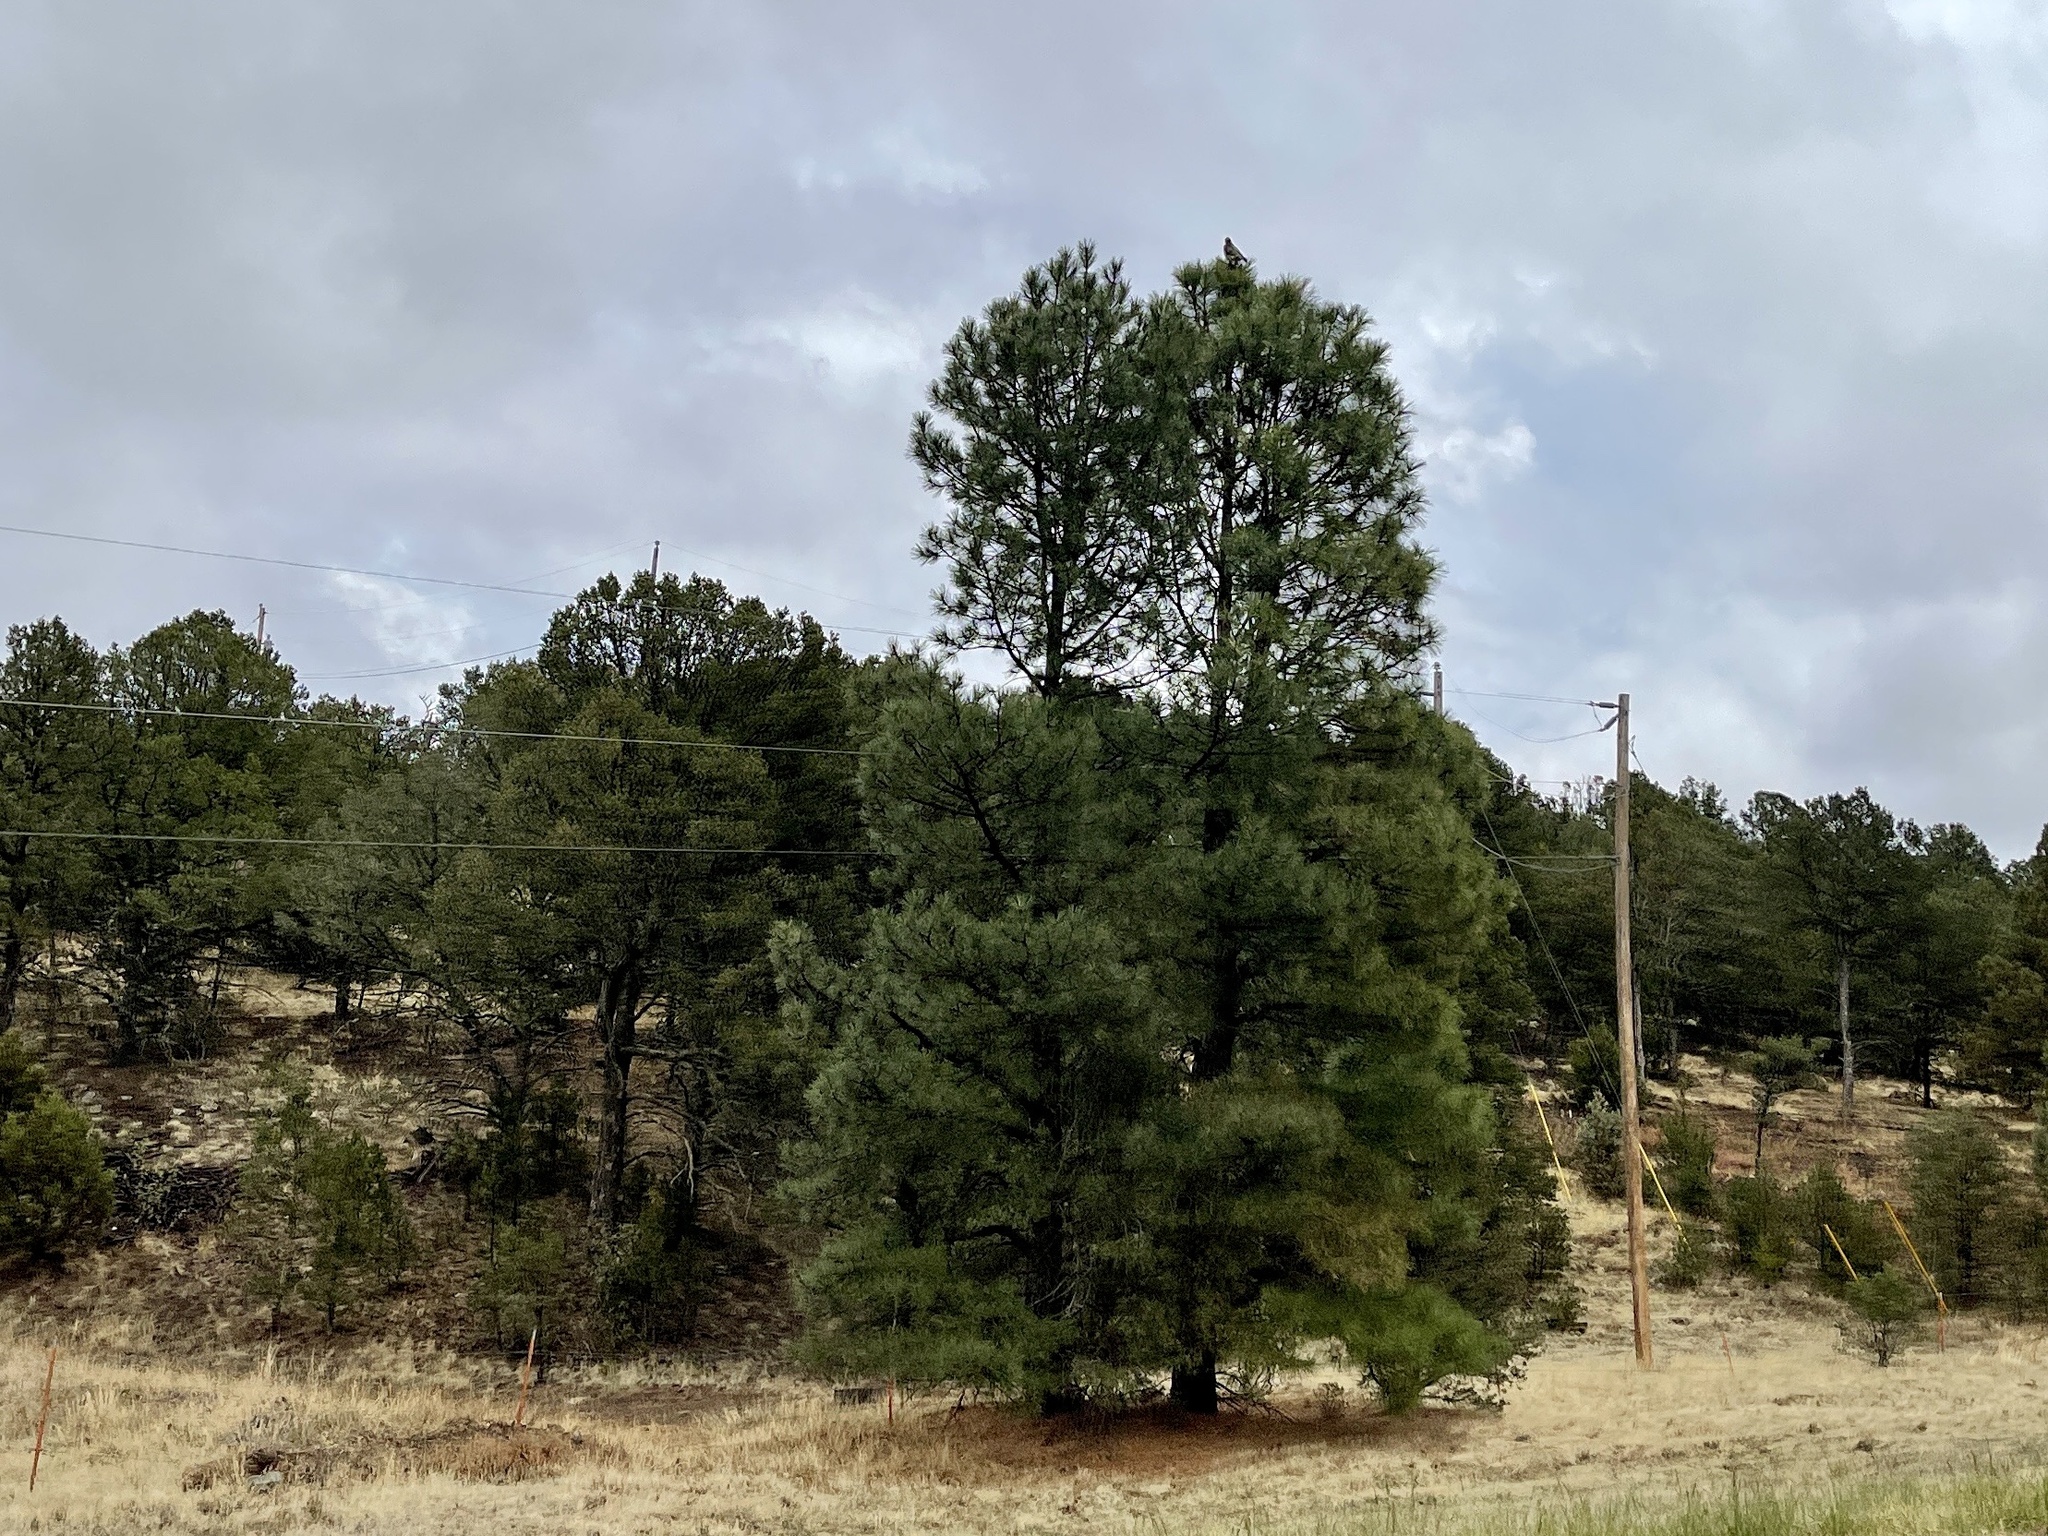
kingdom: Plantae
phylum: Tracheophyta
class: Pinopsida
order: Pinales
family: Pinaceae
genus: Pinus
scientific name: Pinus ponderosa
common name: Western yellow-pine
